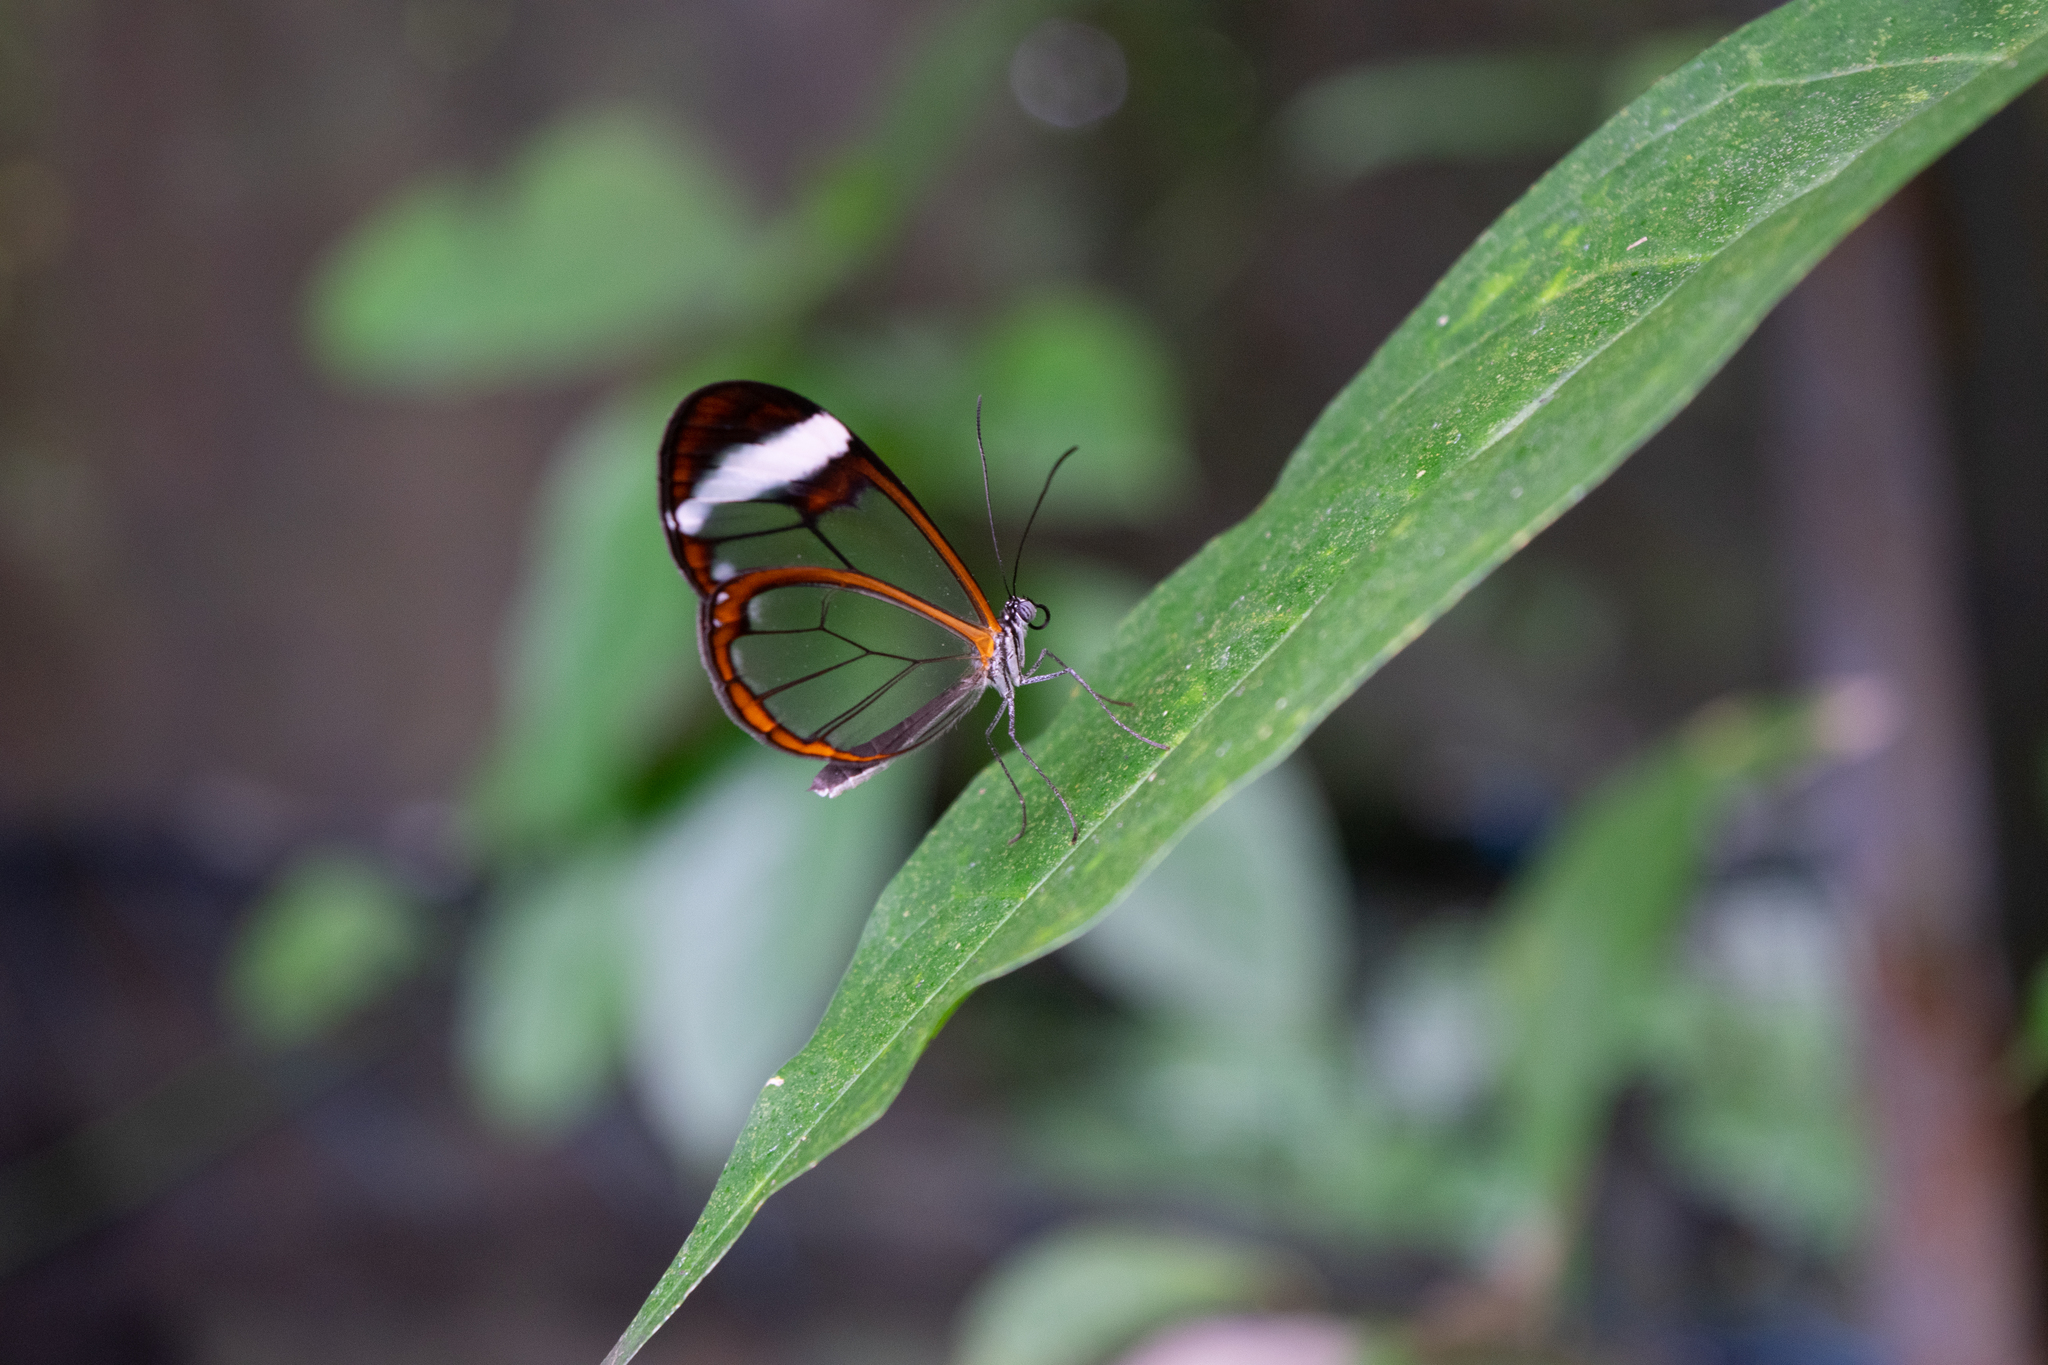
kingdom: Animalia
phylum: Arthropoda
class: Insecta
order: Lepidoptera
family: Nymphalidae
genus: Greta
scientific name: Greta morgane
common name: Thick-tipped greta
